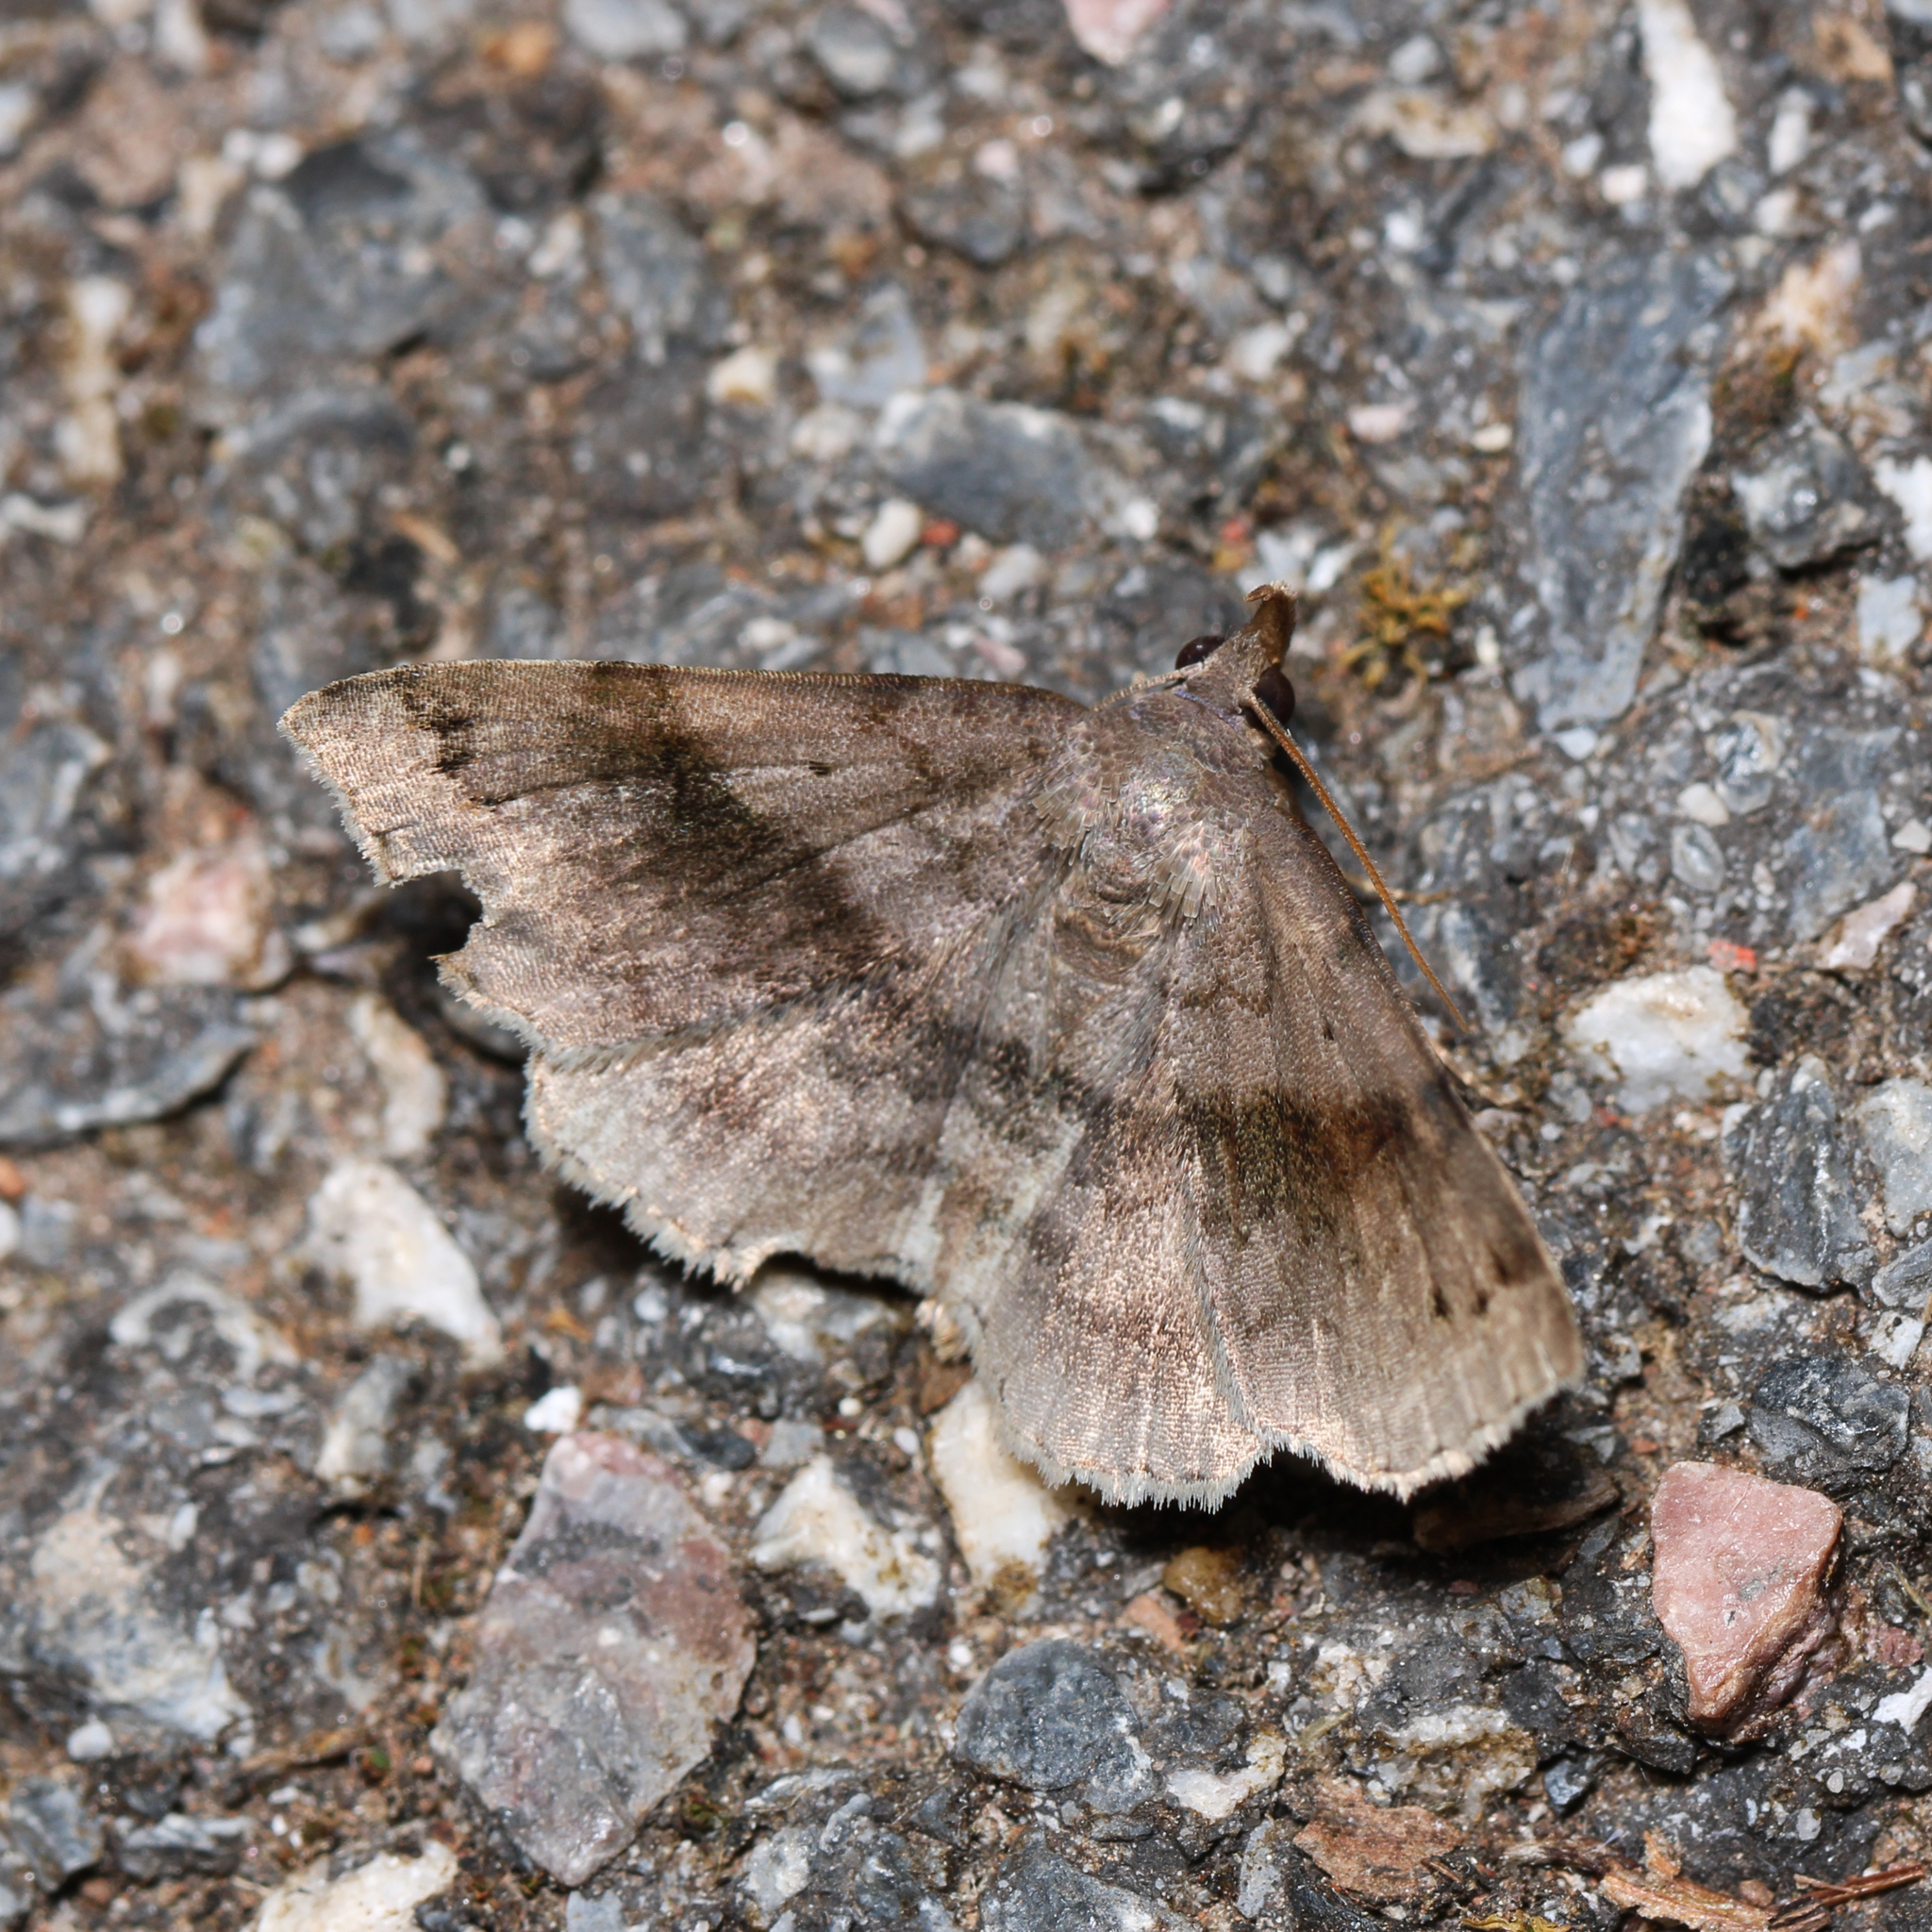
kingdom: Animalia
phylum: Arthropoda
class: Insecta
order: Lepidoptera
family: Erebidae
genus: Spargaloma
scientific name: Spargaloma sexpunctata
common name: Six-spotted gray
